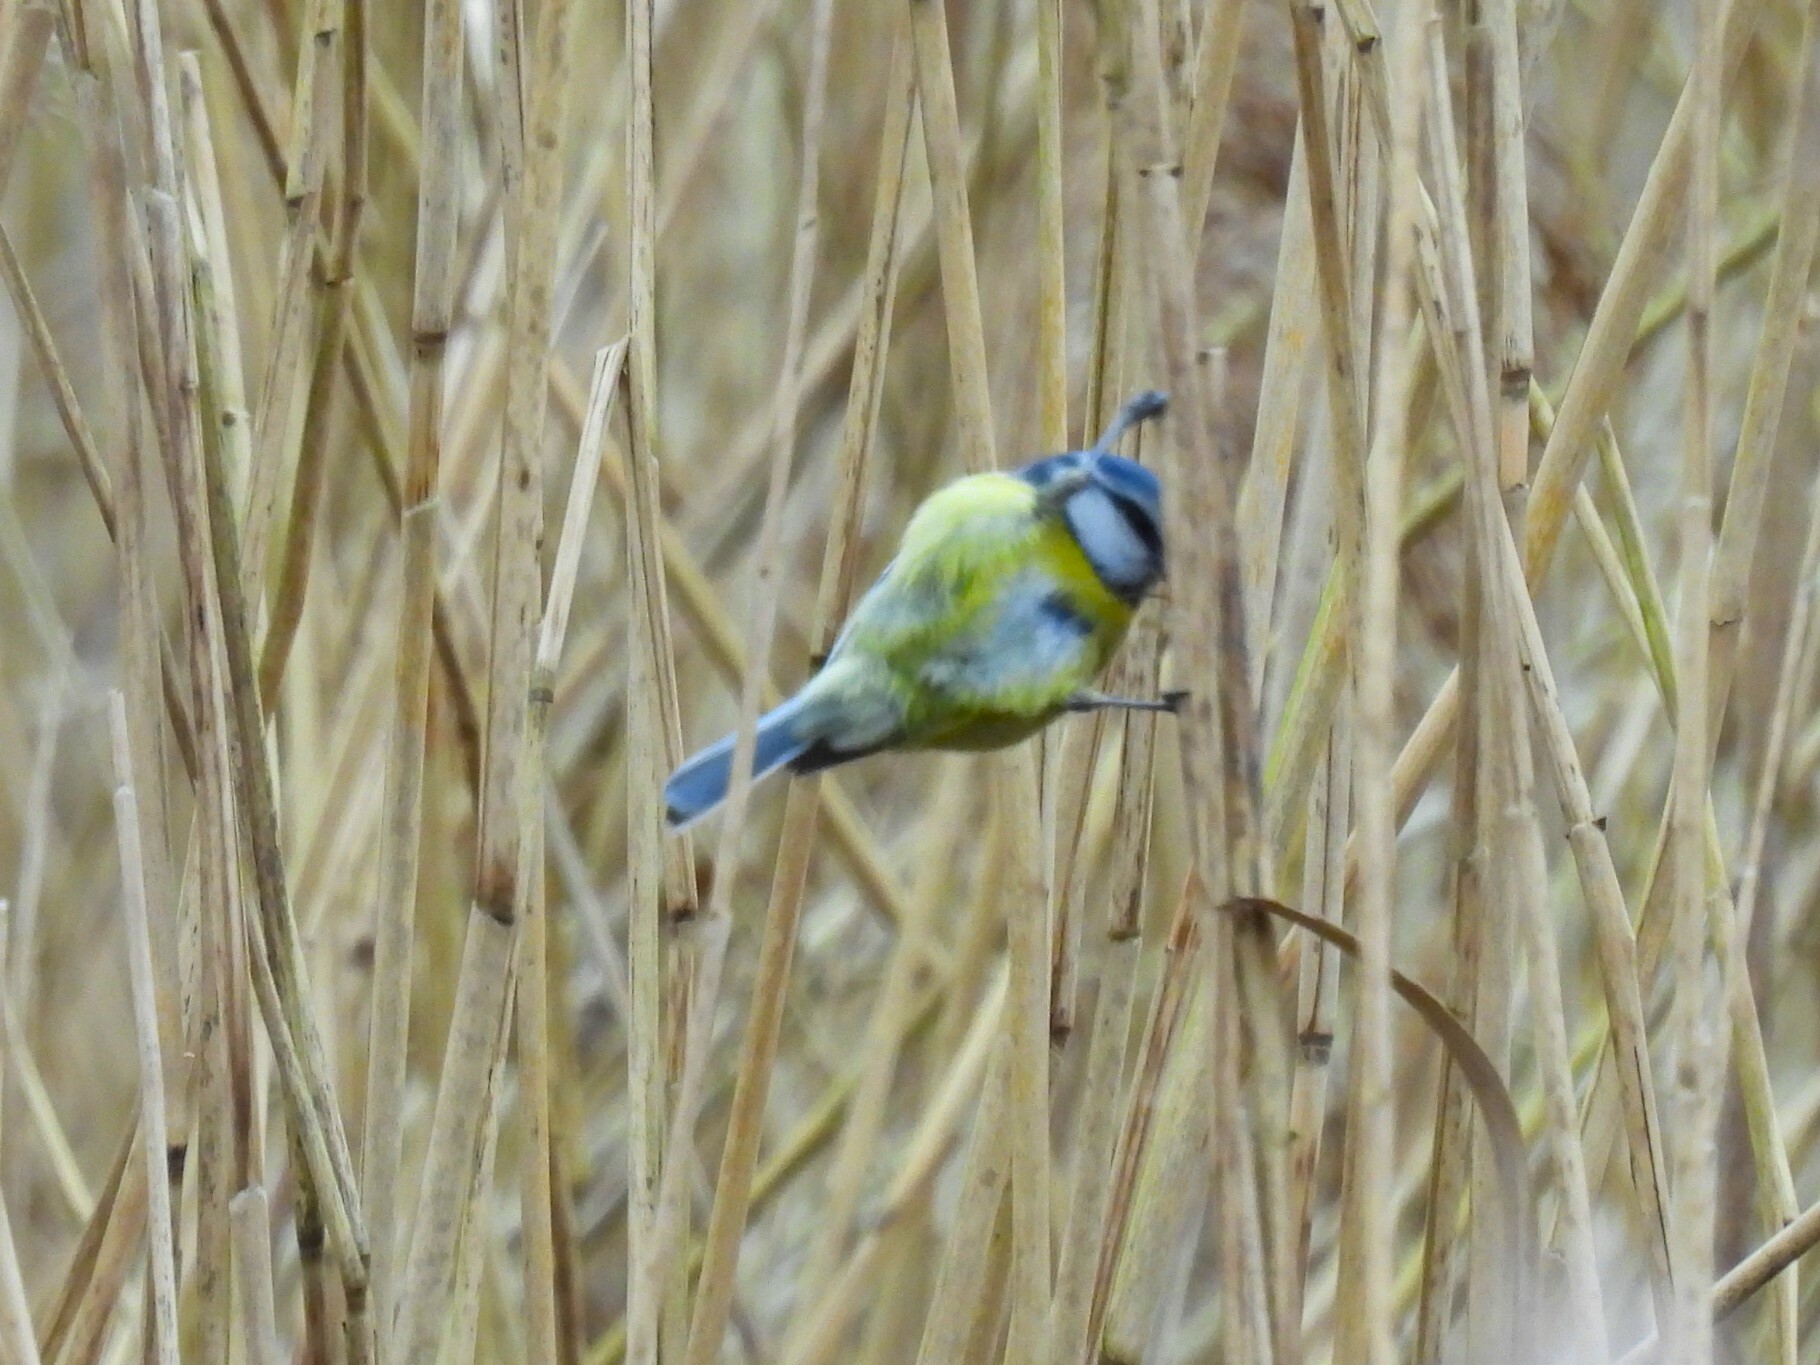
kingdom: Animalia
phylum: Chordata
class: Aves
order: Passeriformes
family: Paridae
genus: Cyanistes
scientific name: Cyanistes caeruleus
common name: Eurasian blue tit
